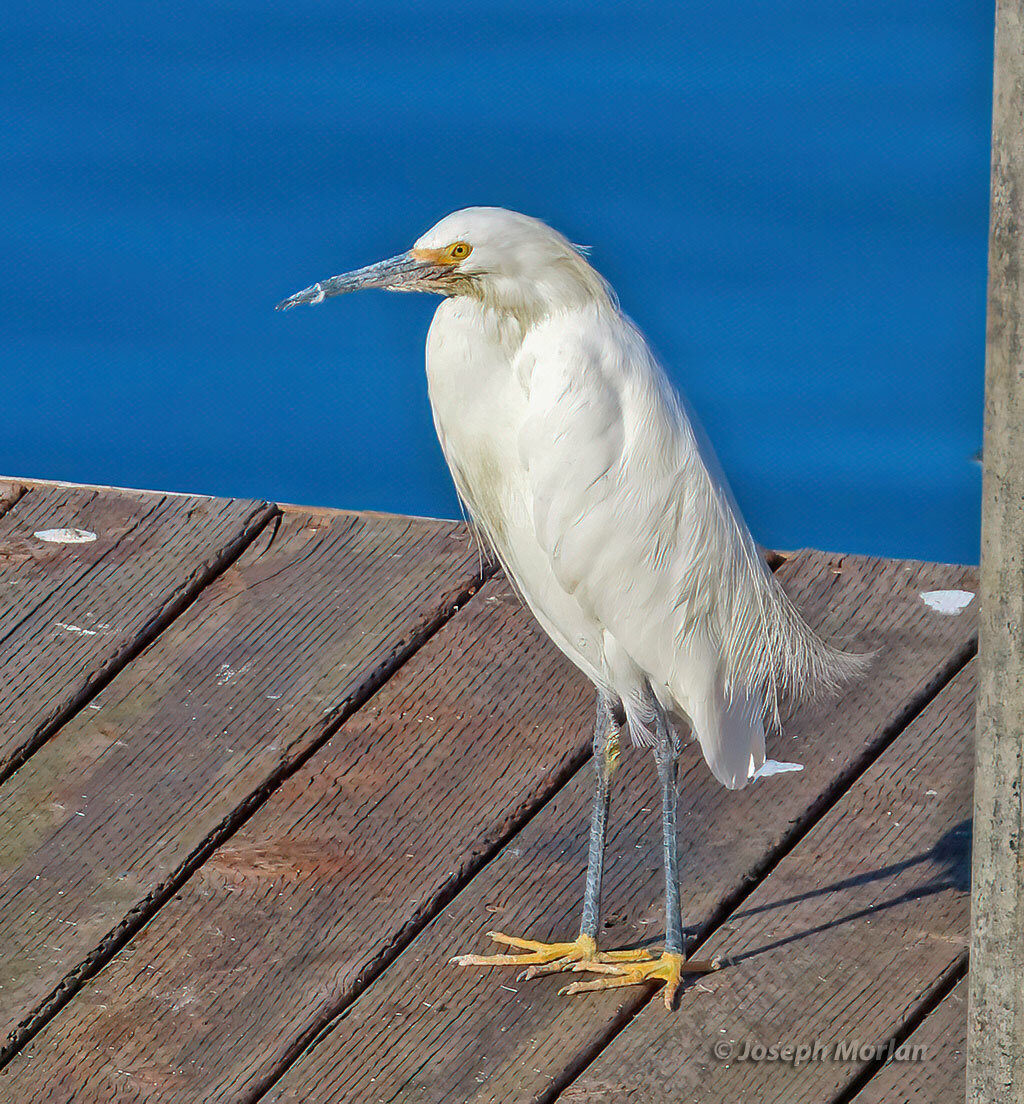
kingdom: Animalia
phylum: Chordata
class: Aves
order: Pelecaniformes
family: Ardeidae
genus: Egretta
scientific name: Egretta thula
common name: Snowy egret
